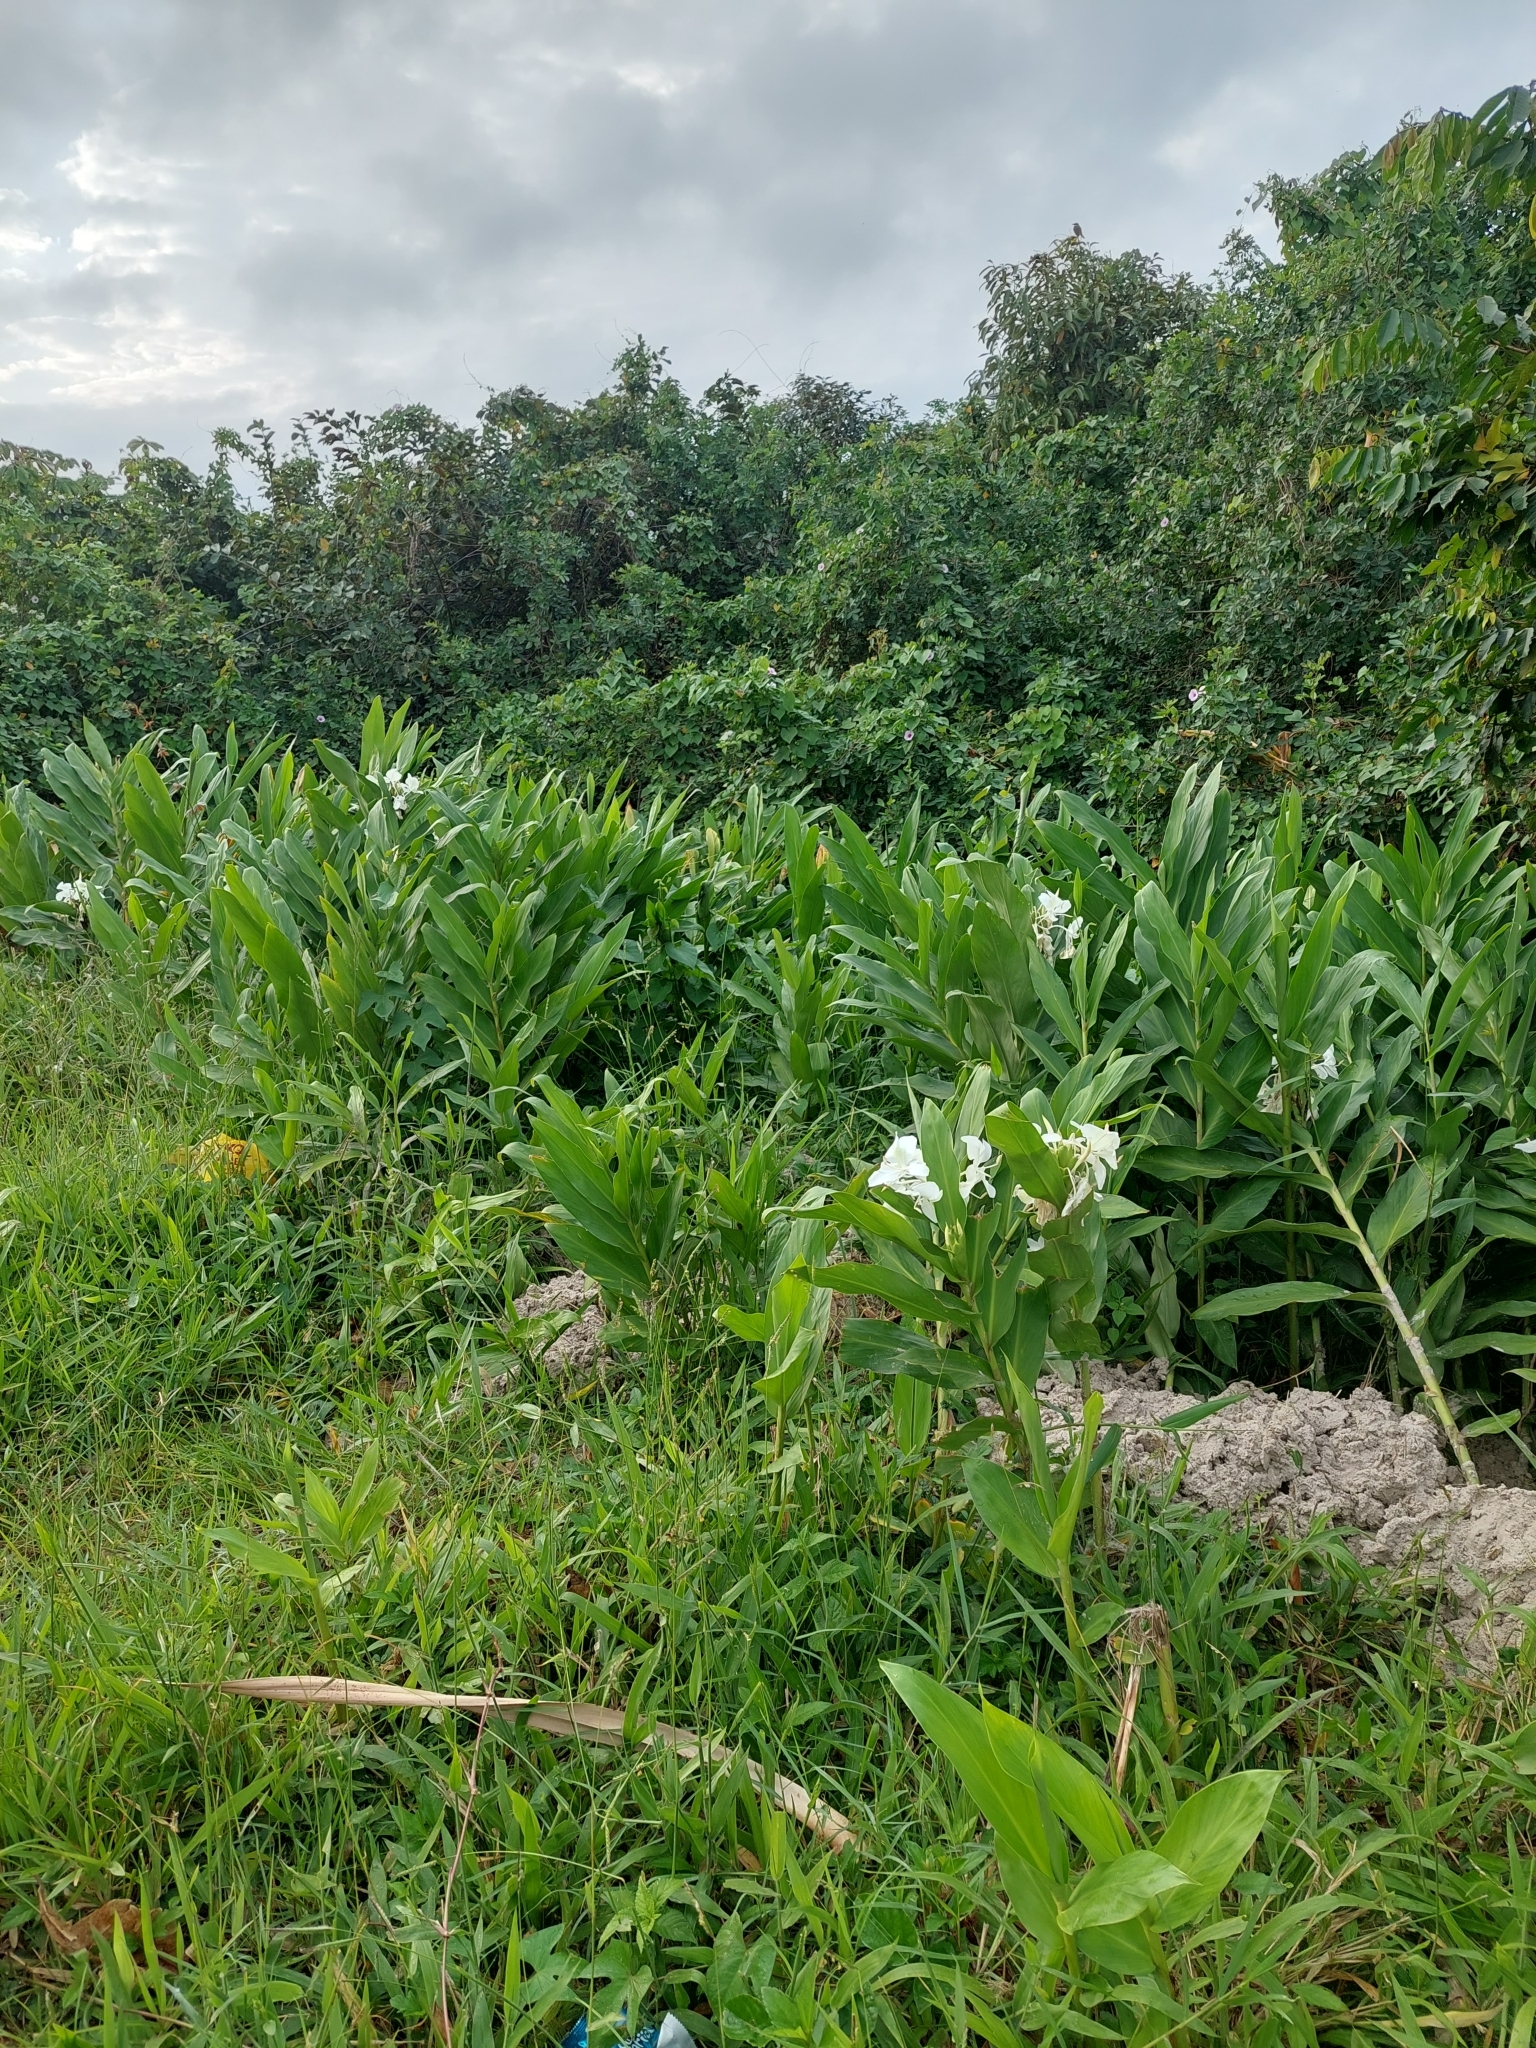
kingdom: Plantae
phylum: Tracheophyta
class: Liliopsida
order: Zingiberales
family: Zingiberaceae
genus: Hedychium
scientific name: Hedychium coronarium
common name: White garland-lily
